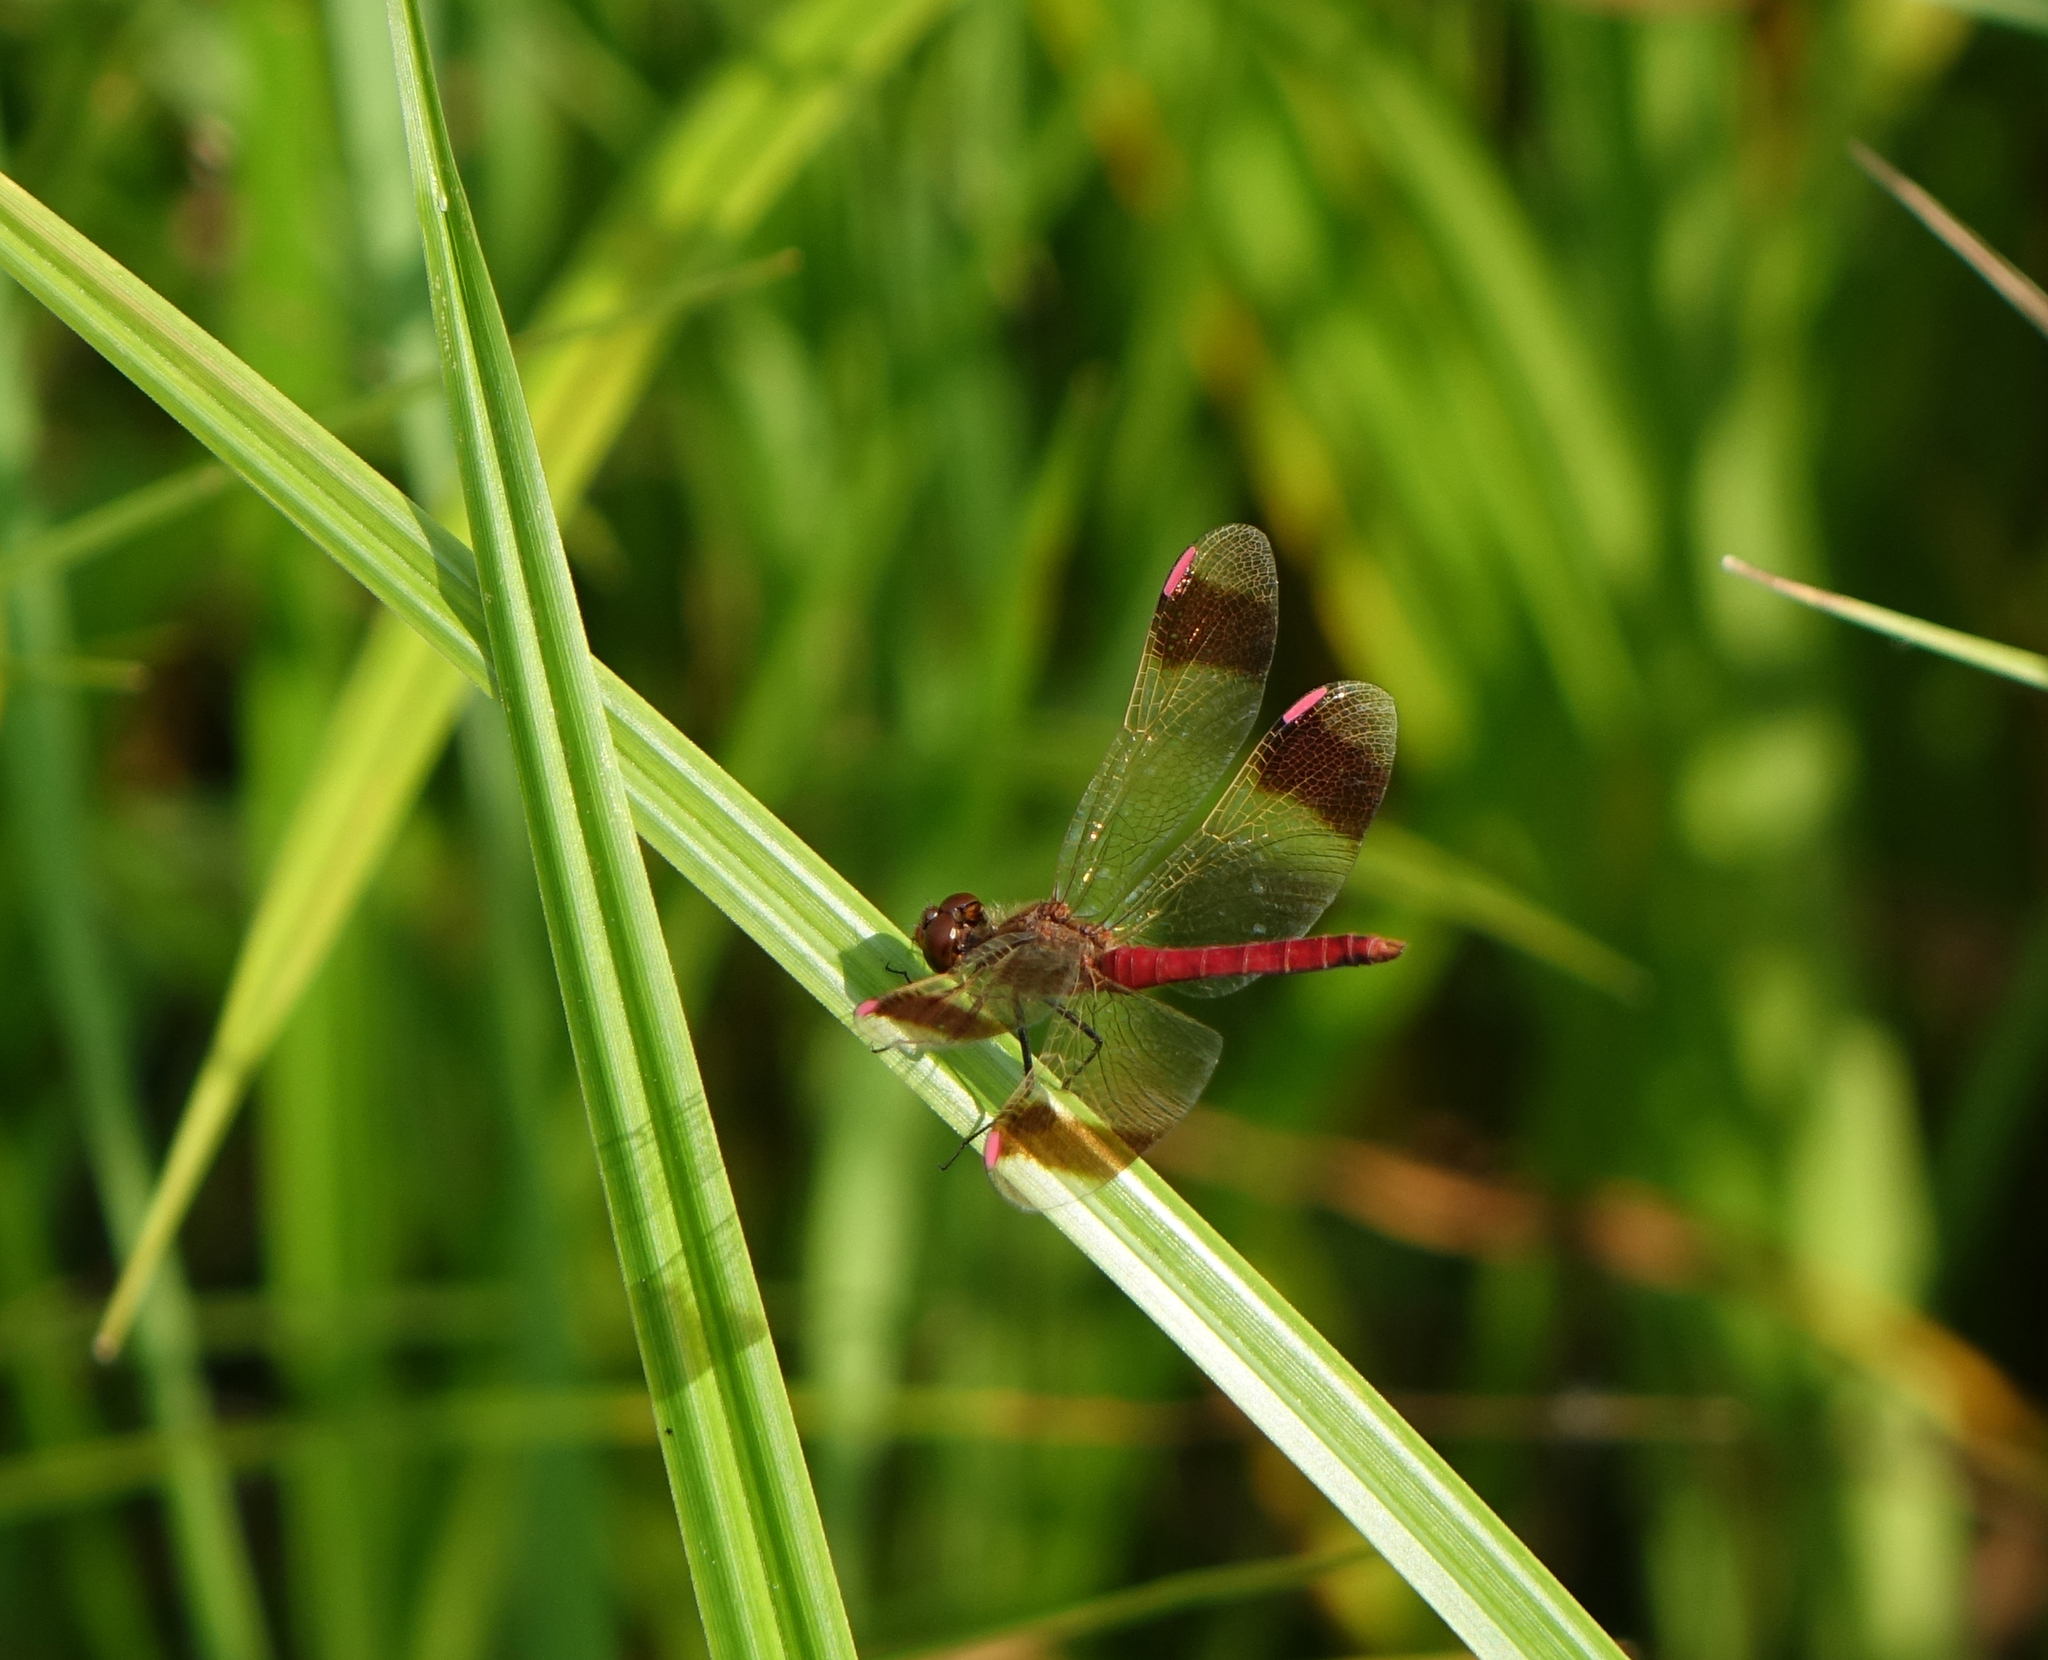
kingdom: Animalia
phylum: Arthropoda
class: Insecta
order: Odonata
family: Libellulidae
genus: Sympetrum
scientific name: Sympetrum pedemontanum
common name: Banded darter
